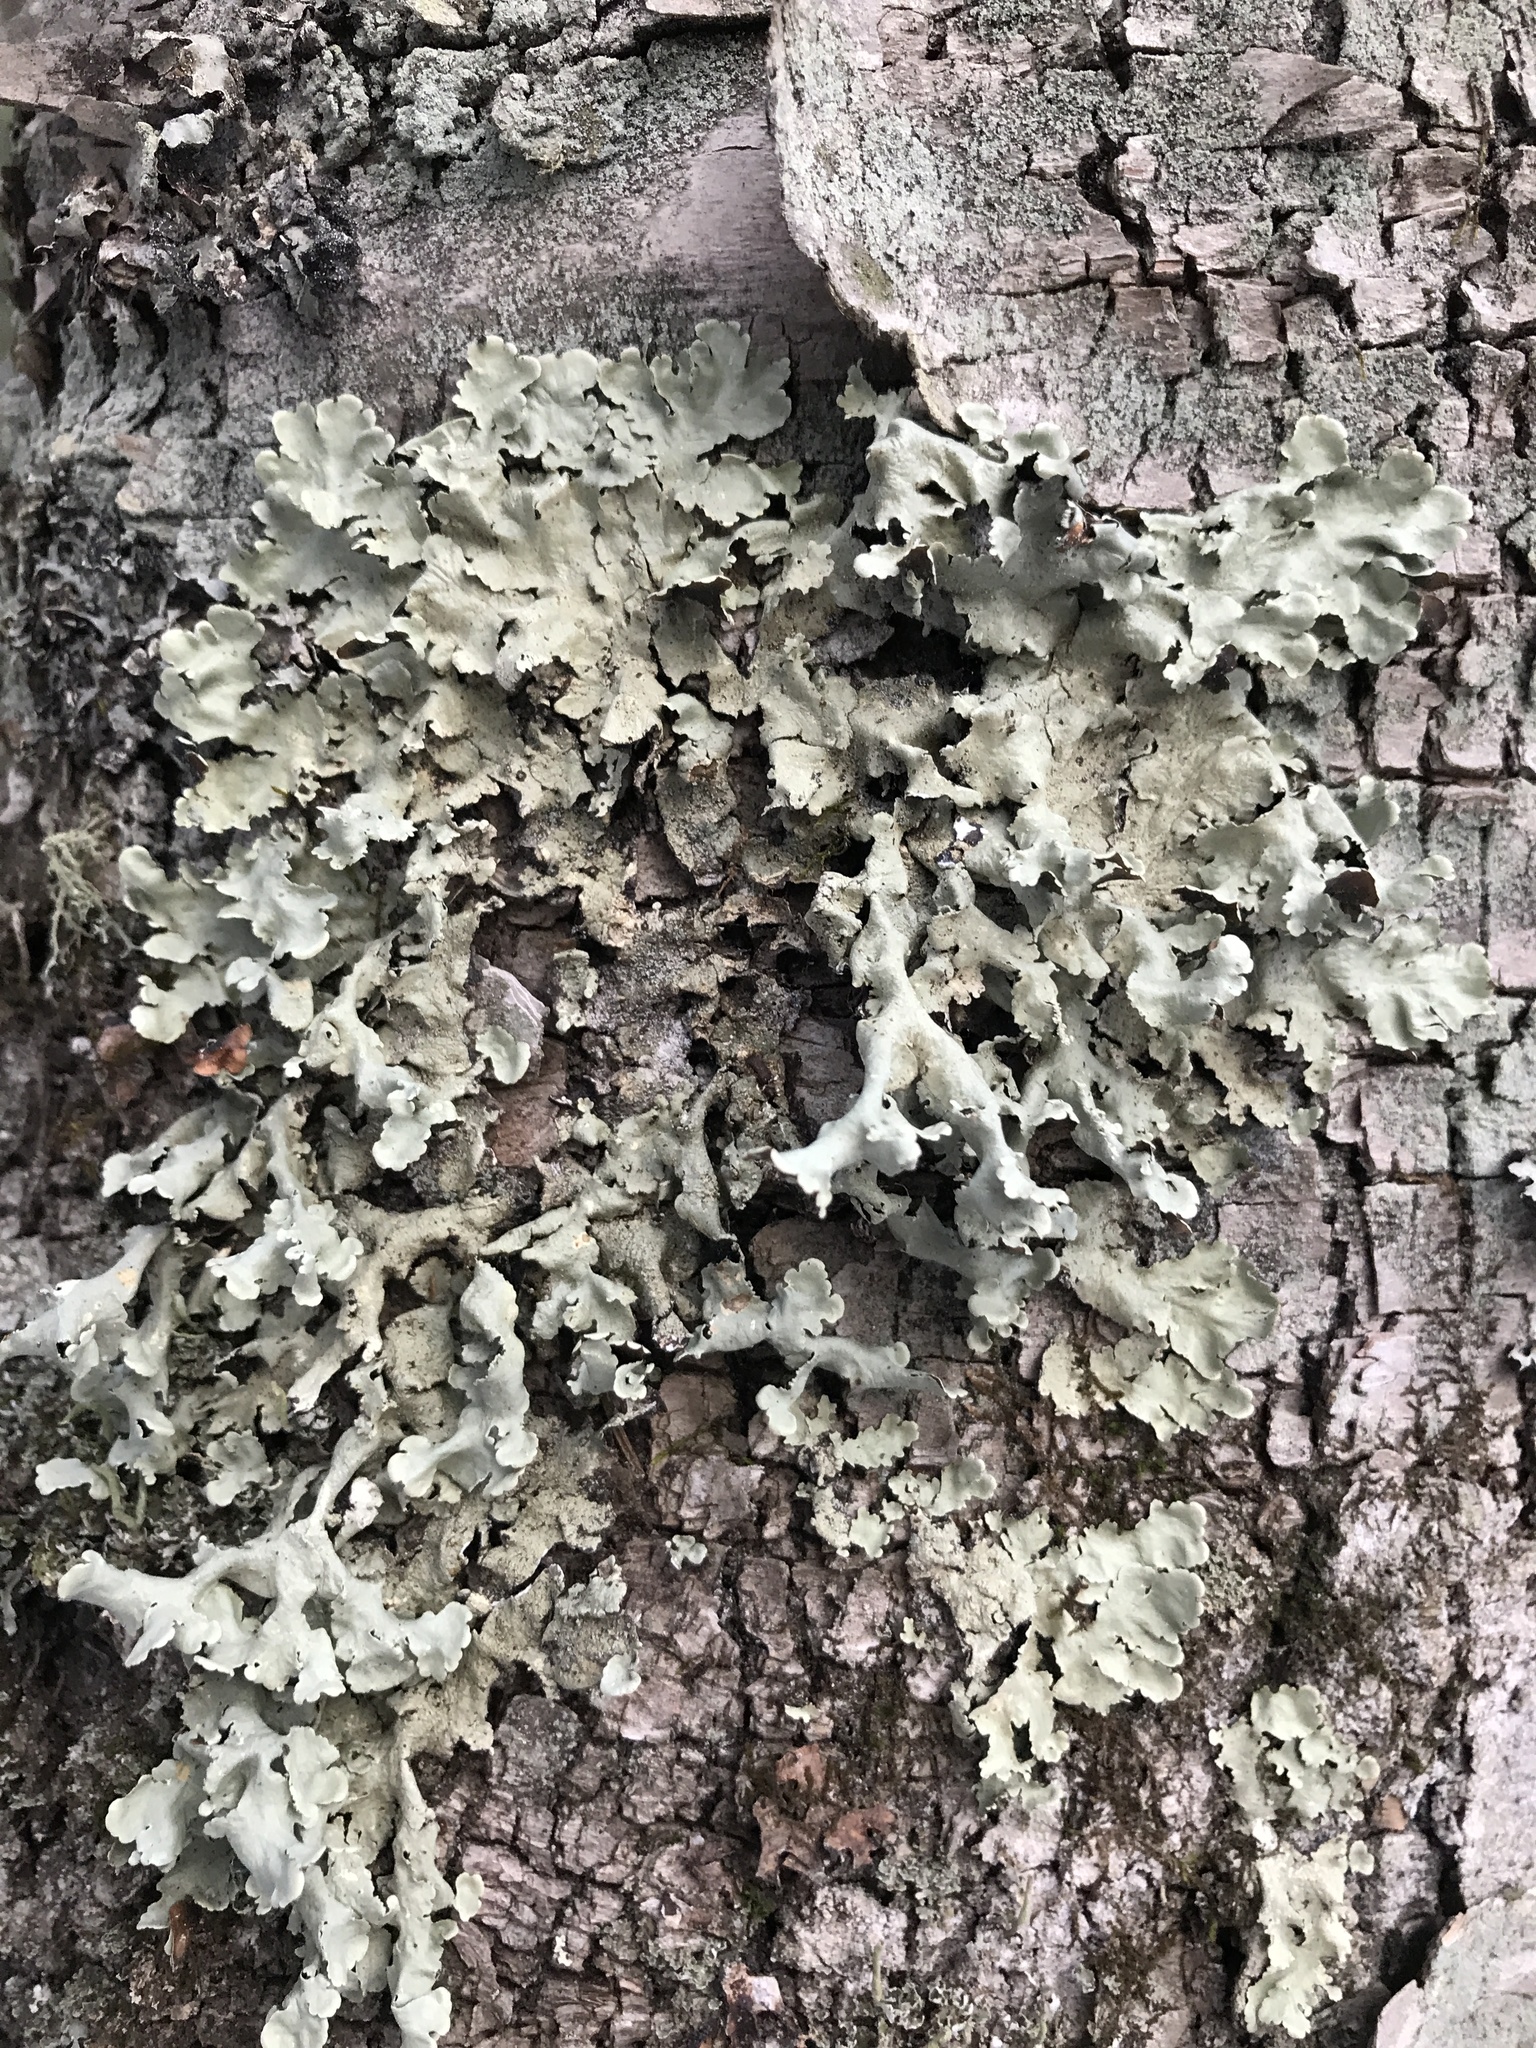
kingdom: Fungi
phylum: Ascomycota
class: Lecanoromycetes
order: Lecanorales
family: Parmeliaceae
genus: Flavoparmelia
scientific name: Flavoparmelia caperata
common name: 40-mile per hour lichen
